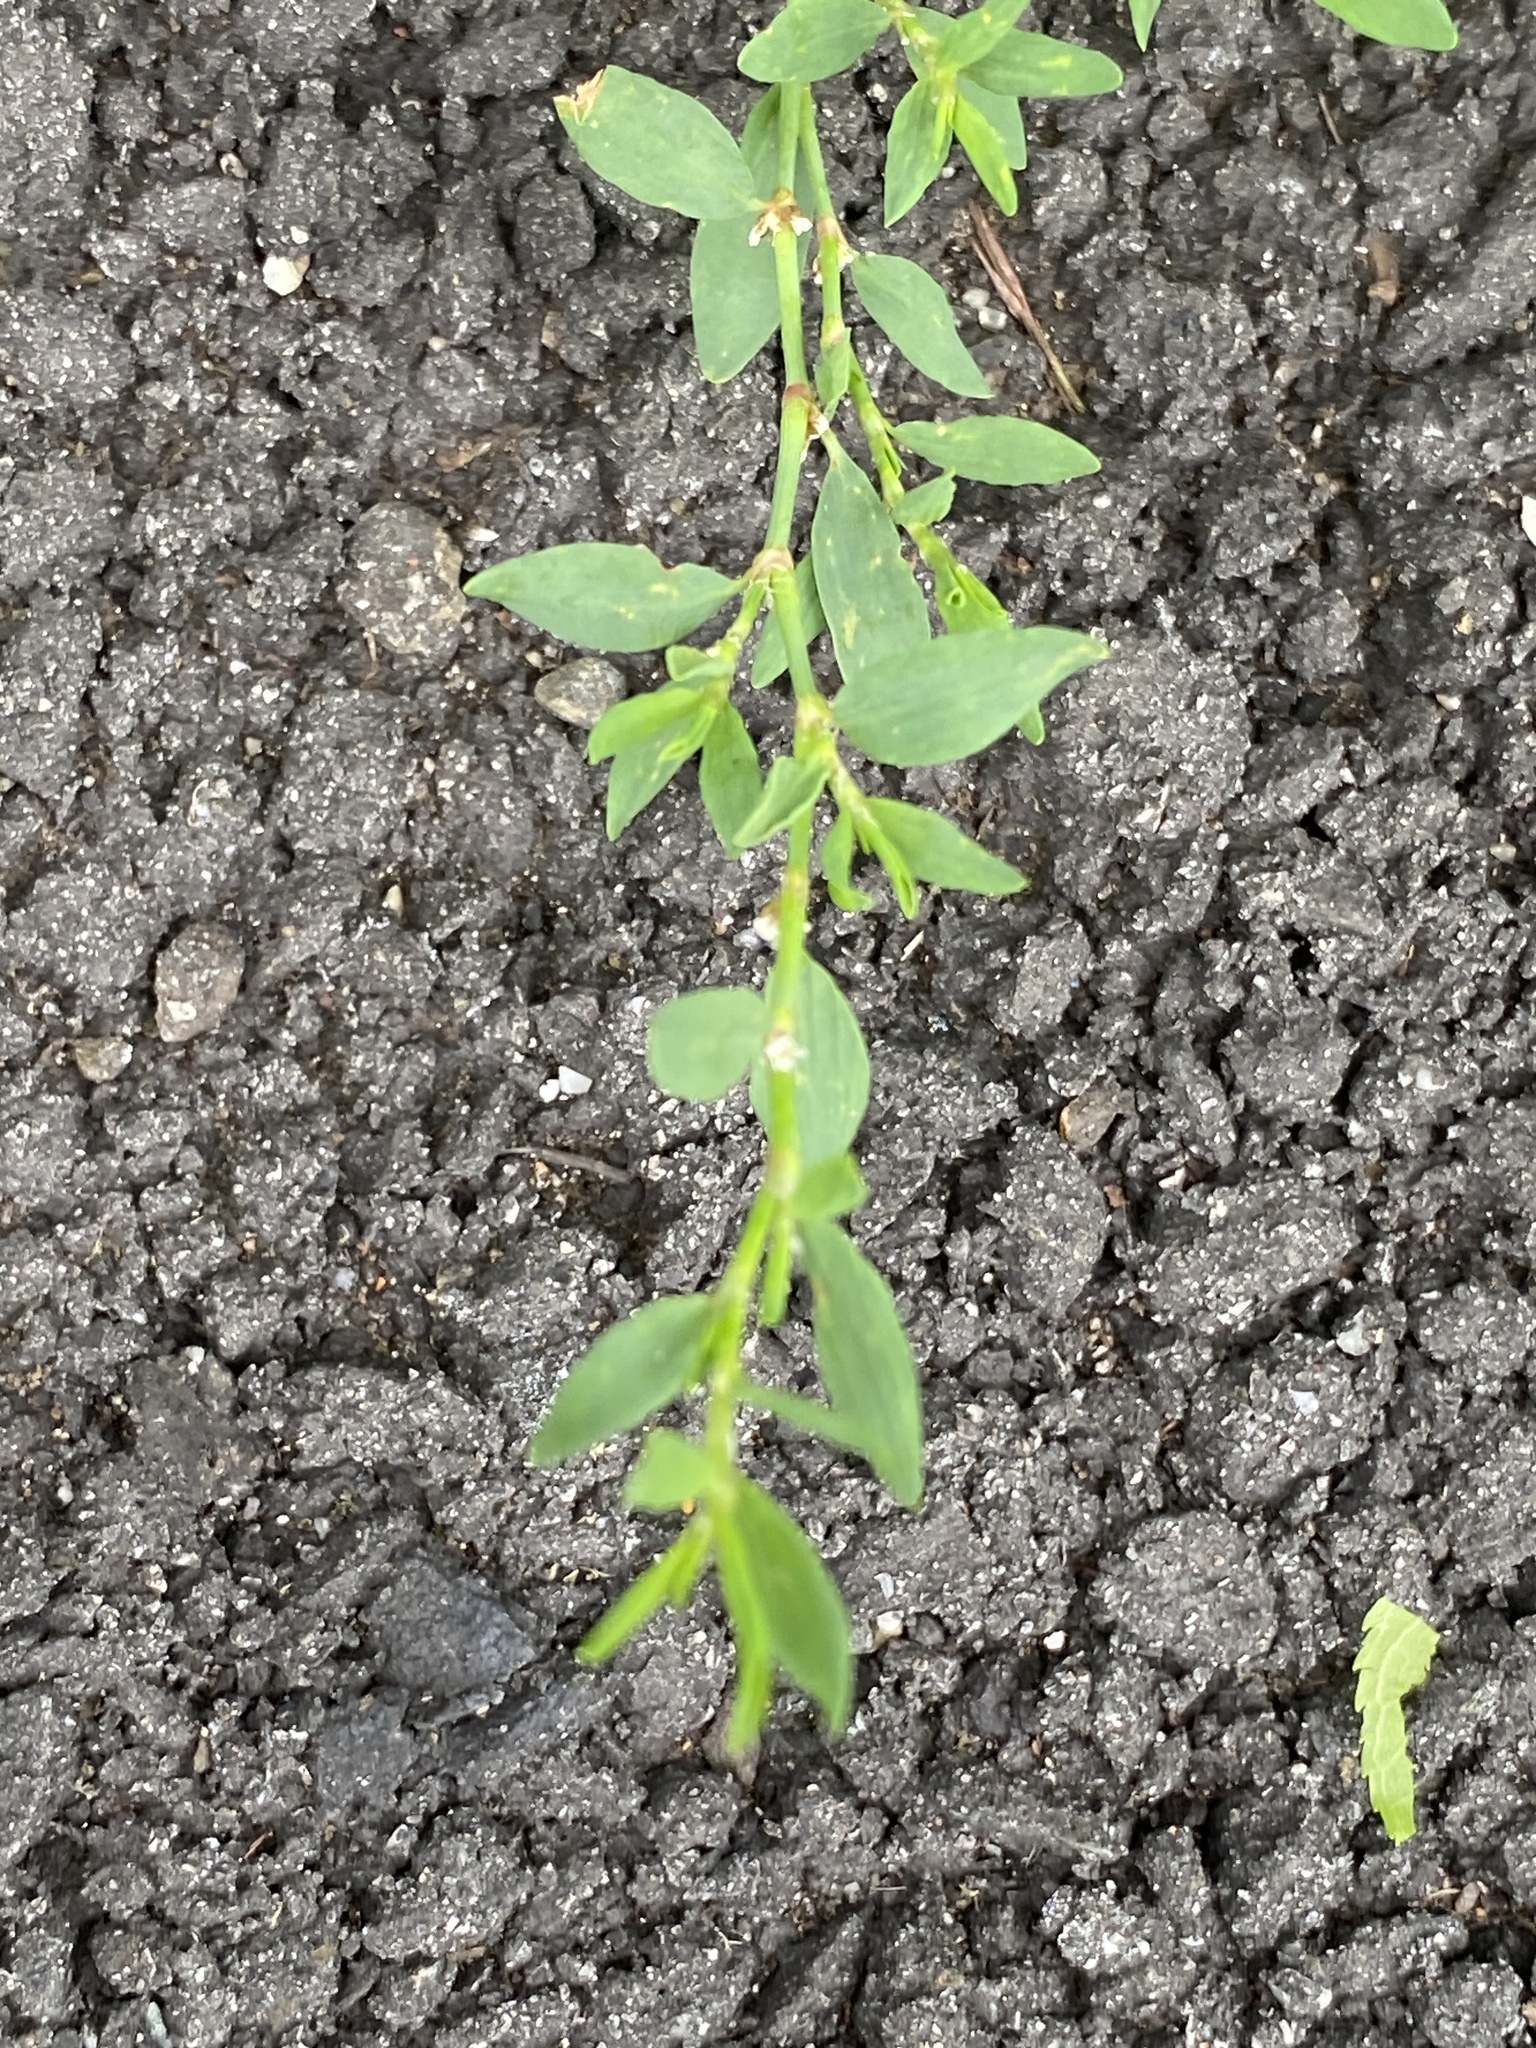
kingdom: Plantae
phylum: Tracheophyta
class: Magnoliopsida
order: Caryophyllales
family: Polygonaceae
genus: Polygonum
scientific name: Polygonum aviculare
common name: Prostrate knotweed
